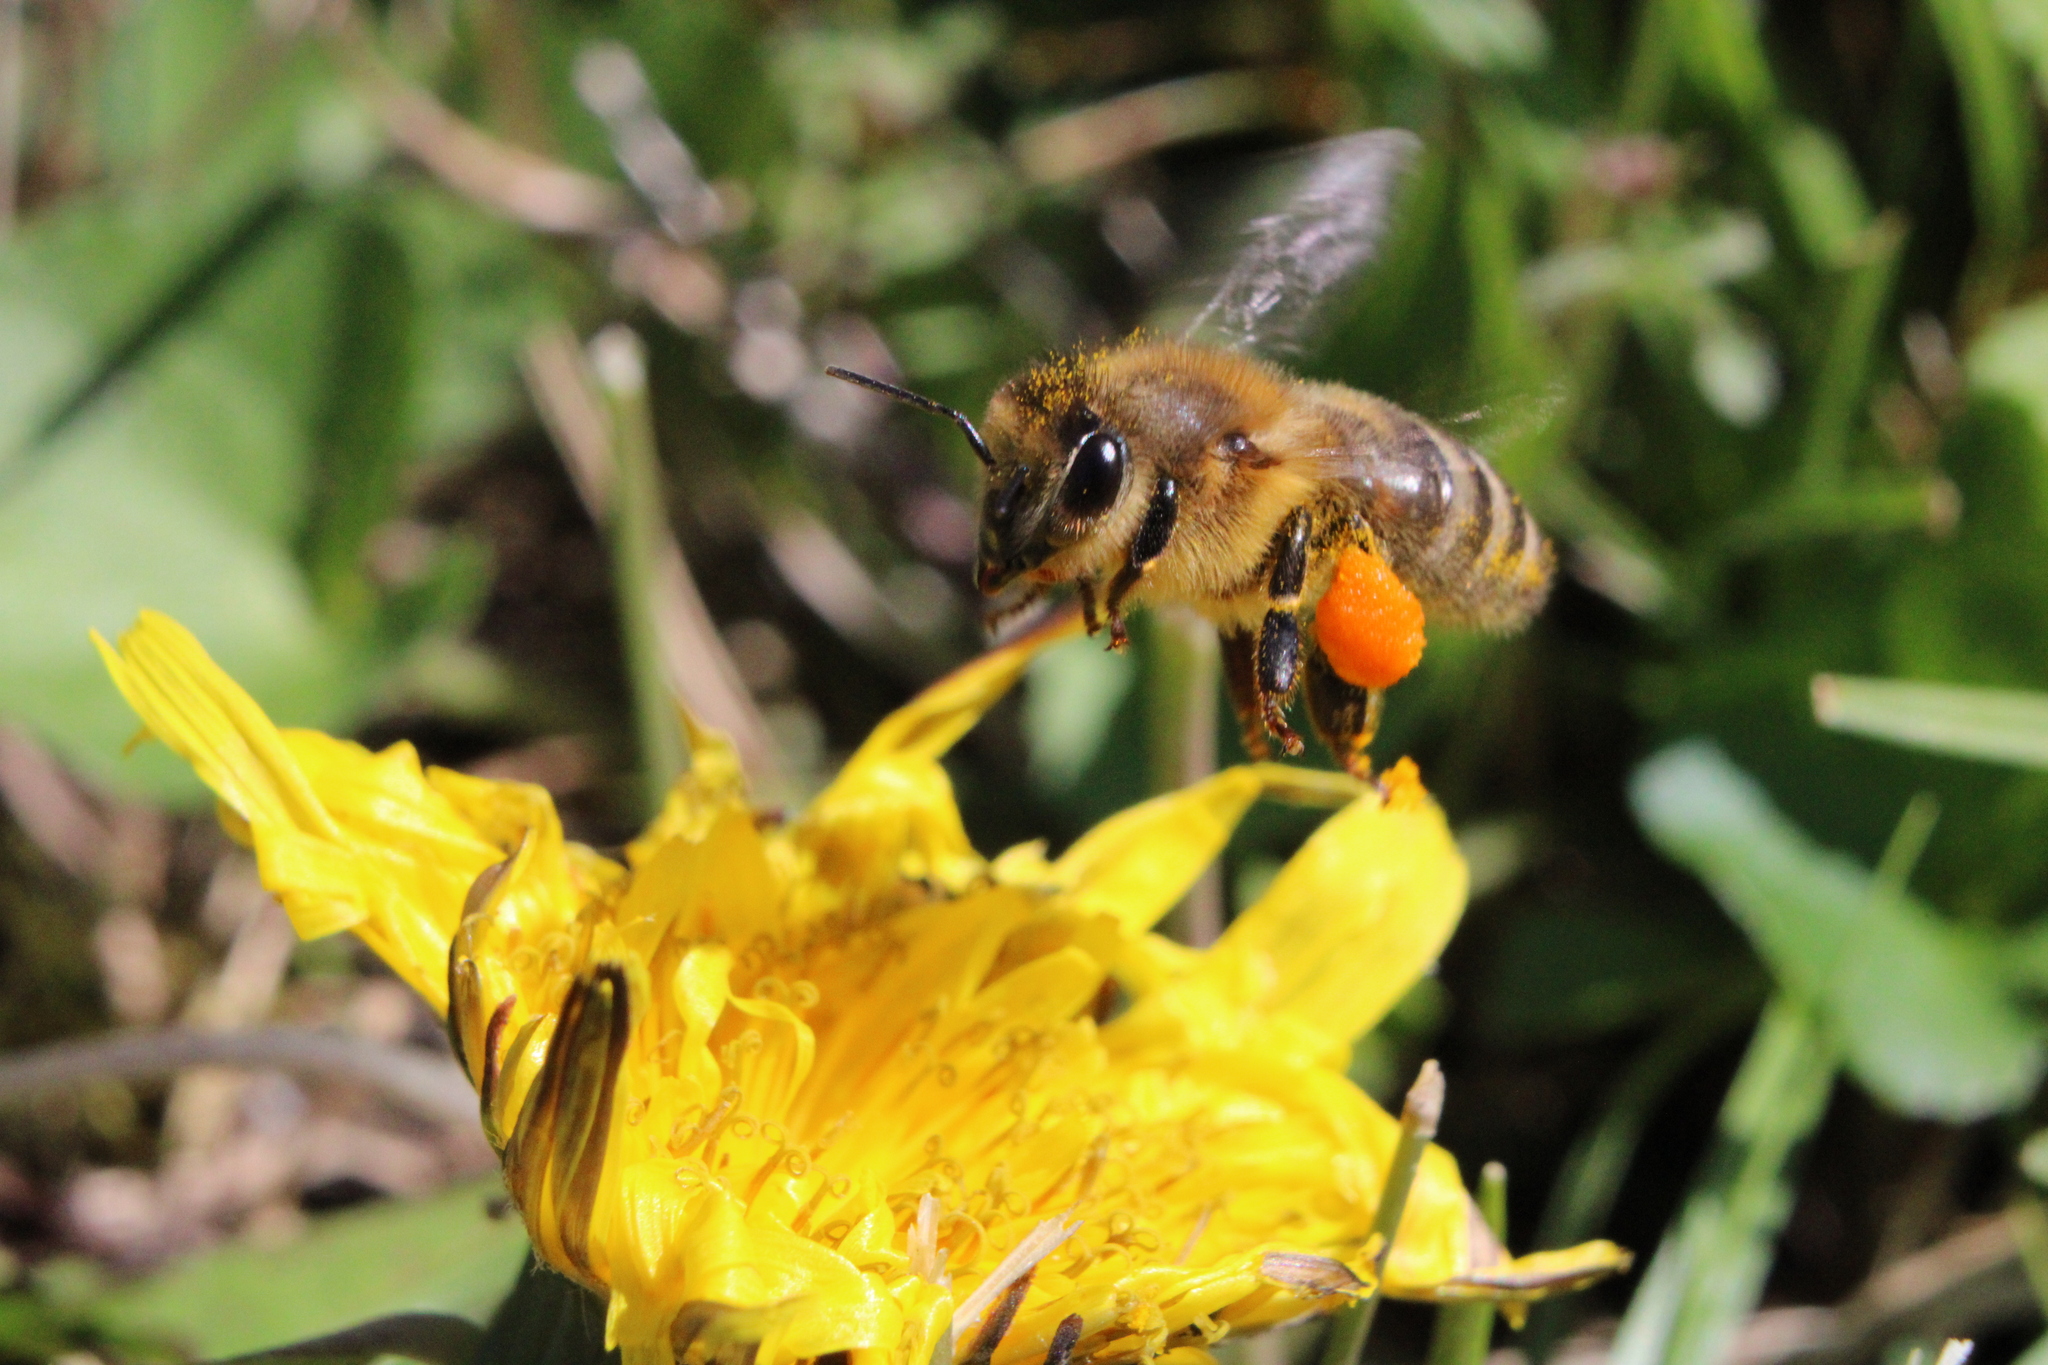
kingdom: Animalia
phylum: Arthropoda
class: Insecta
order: Hymenoptera
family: Apidae
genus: Apis
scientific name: Apis mellifera
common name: Honey bee
